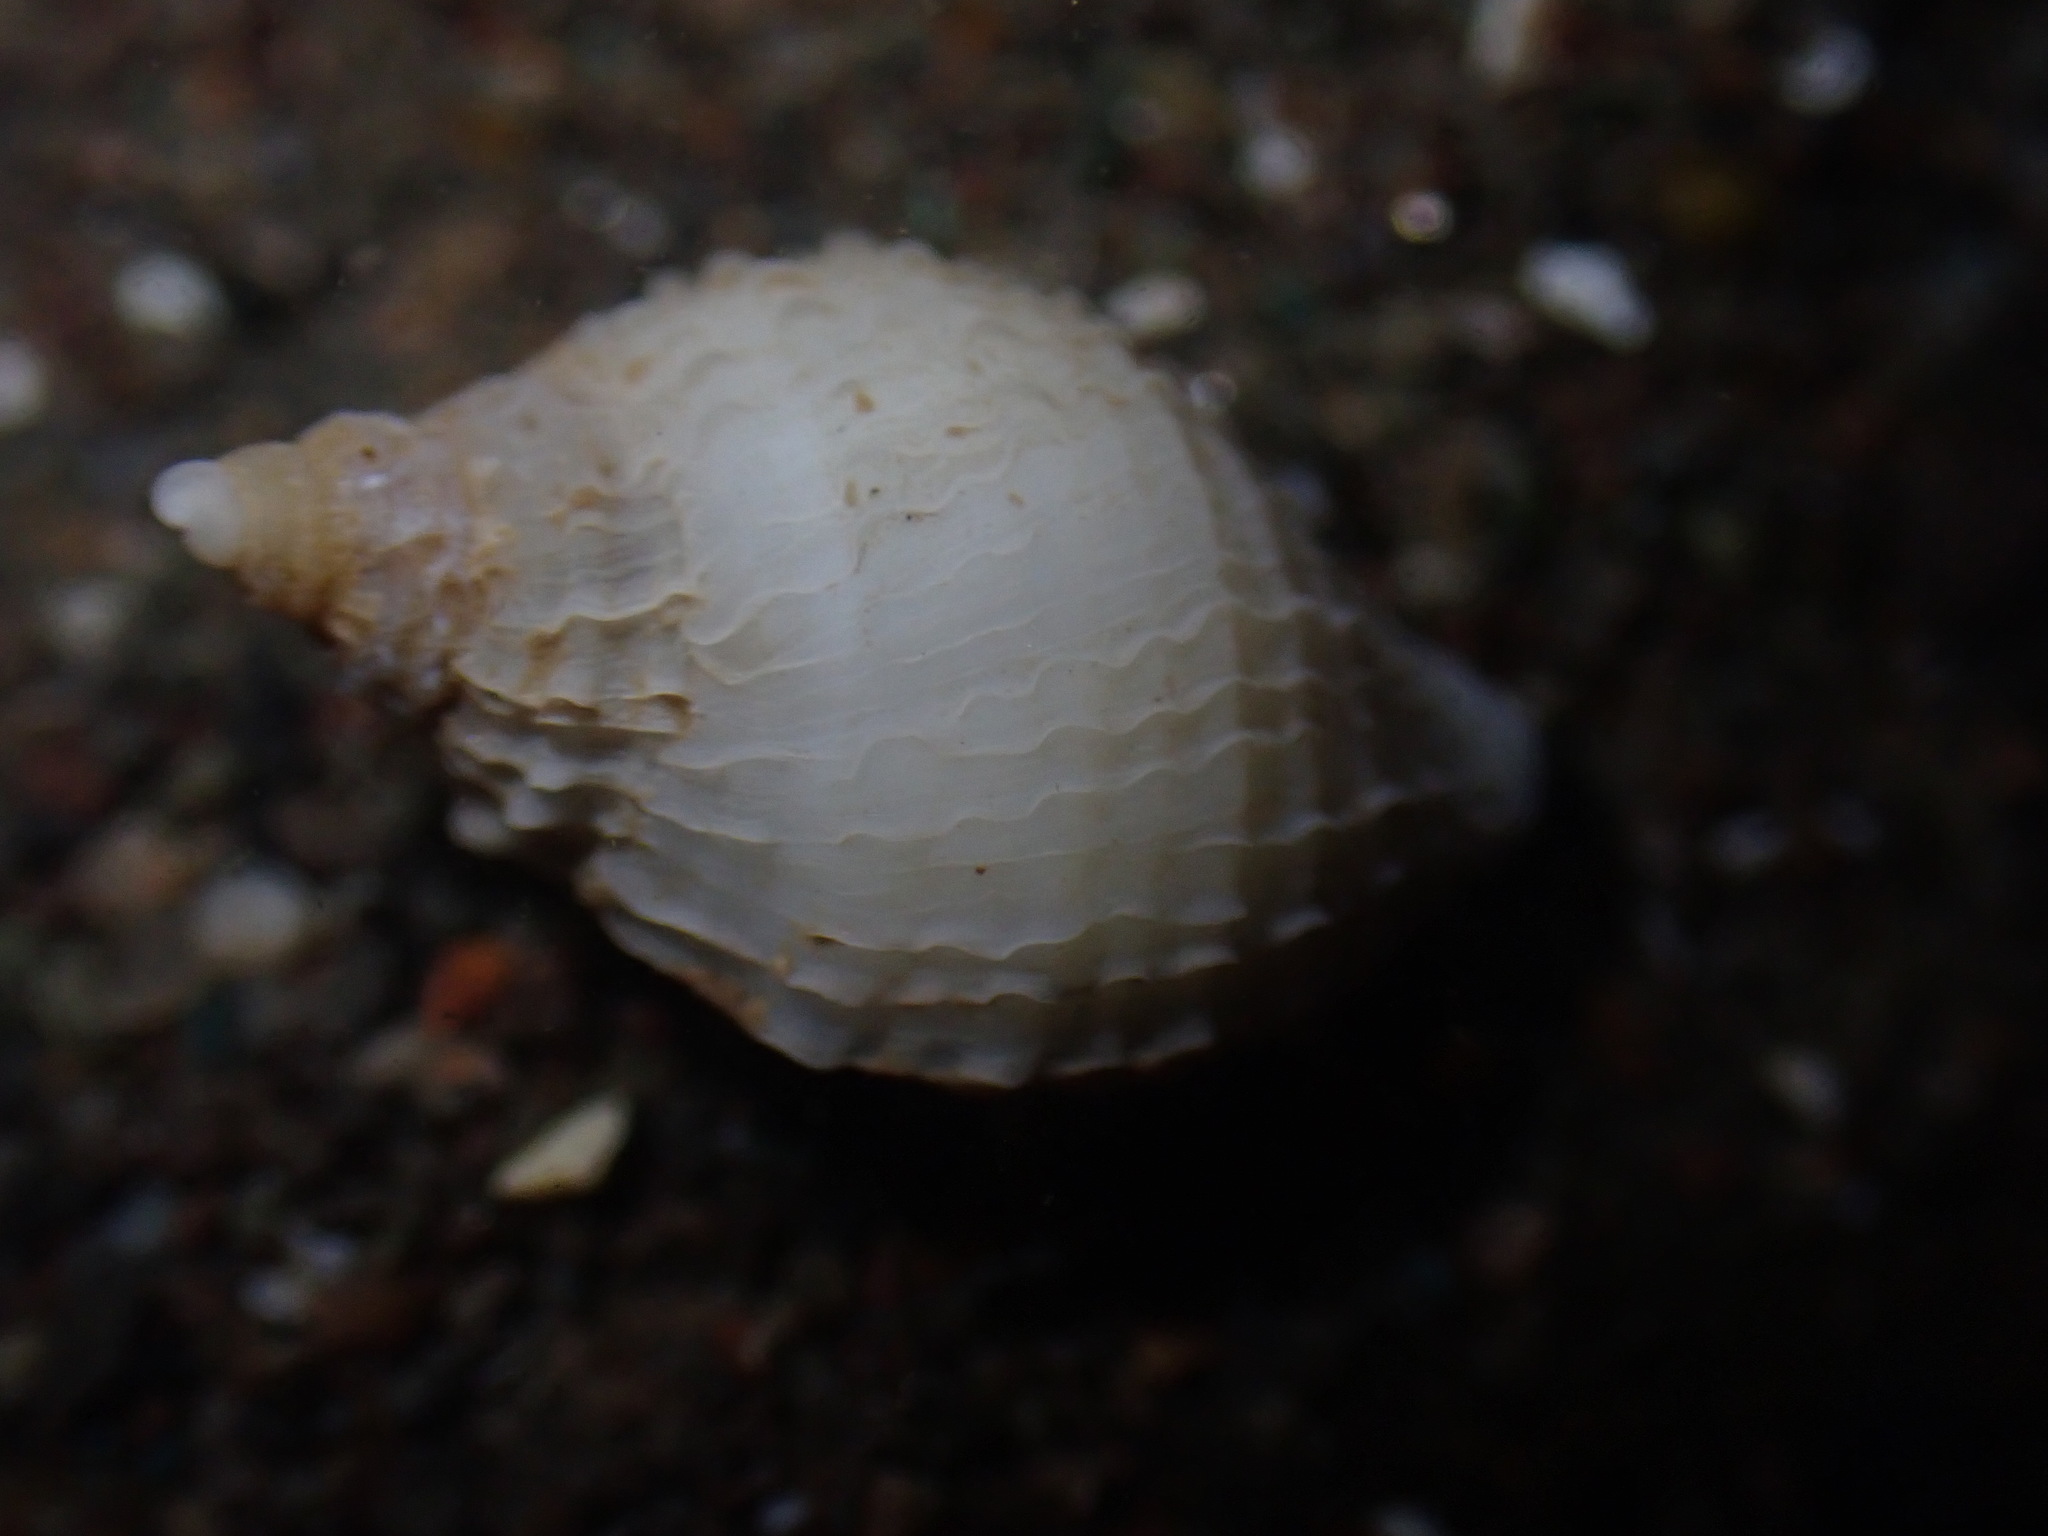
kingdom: Animalia
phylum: Mollusca
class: Gastropoda
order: Neogastropoda
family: Muricidae
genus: Nucella
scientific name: Nucella lapillus
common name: Dog whelk
